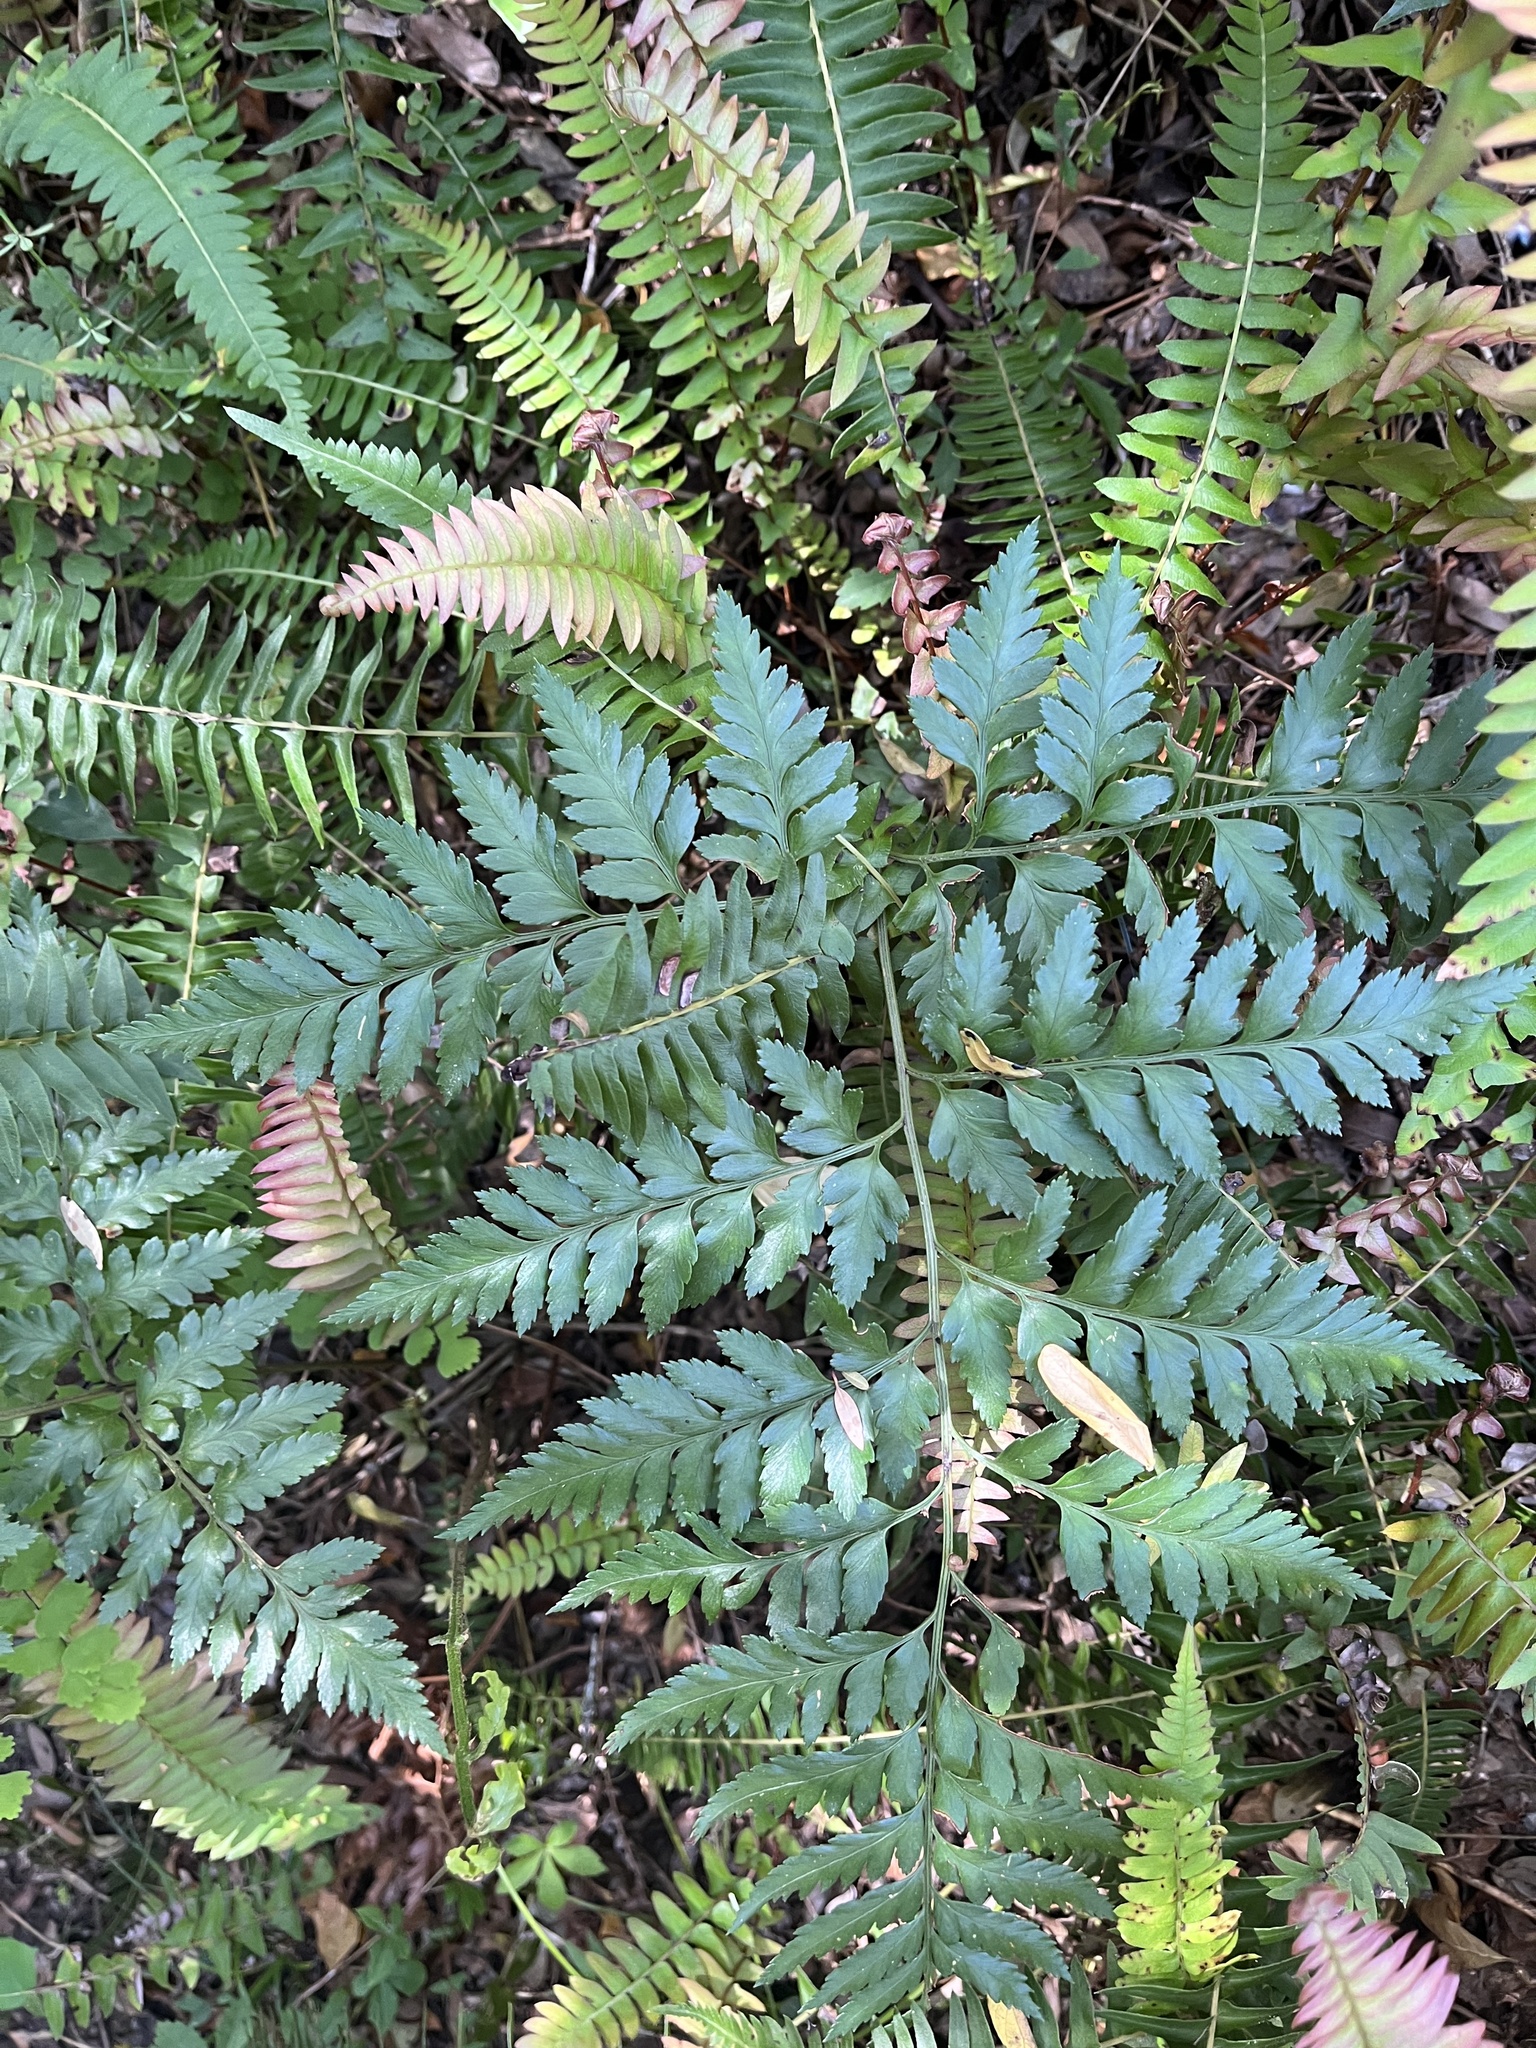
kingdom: Plantae
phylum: Tracheophyta
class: Polypodiopsida
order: Polypodiales
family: Dryopteridaceae
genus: Rumohra
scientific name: Rumohra adiantiformis
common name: Leather fern
